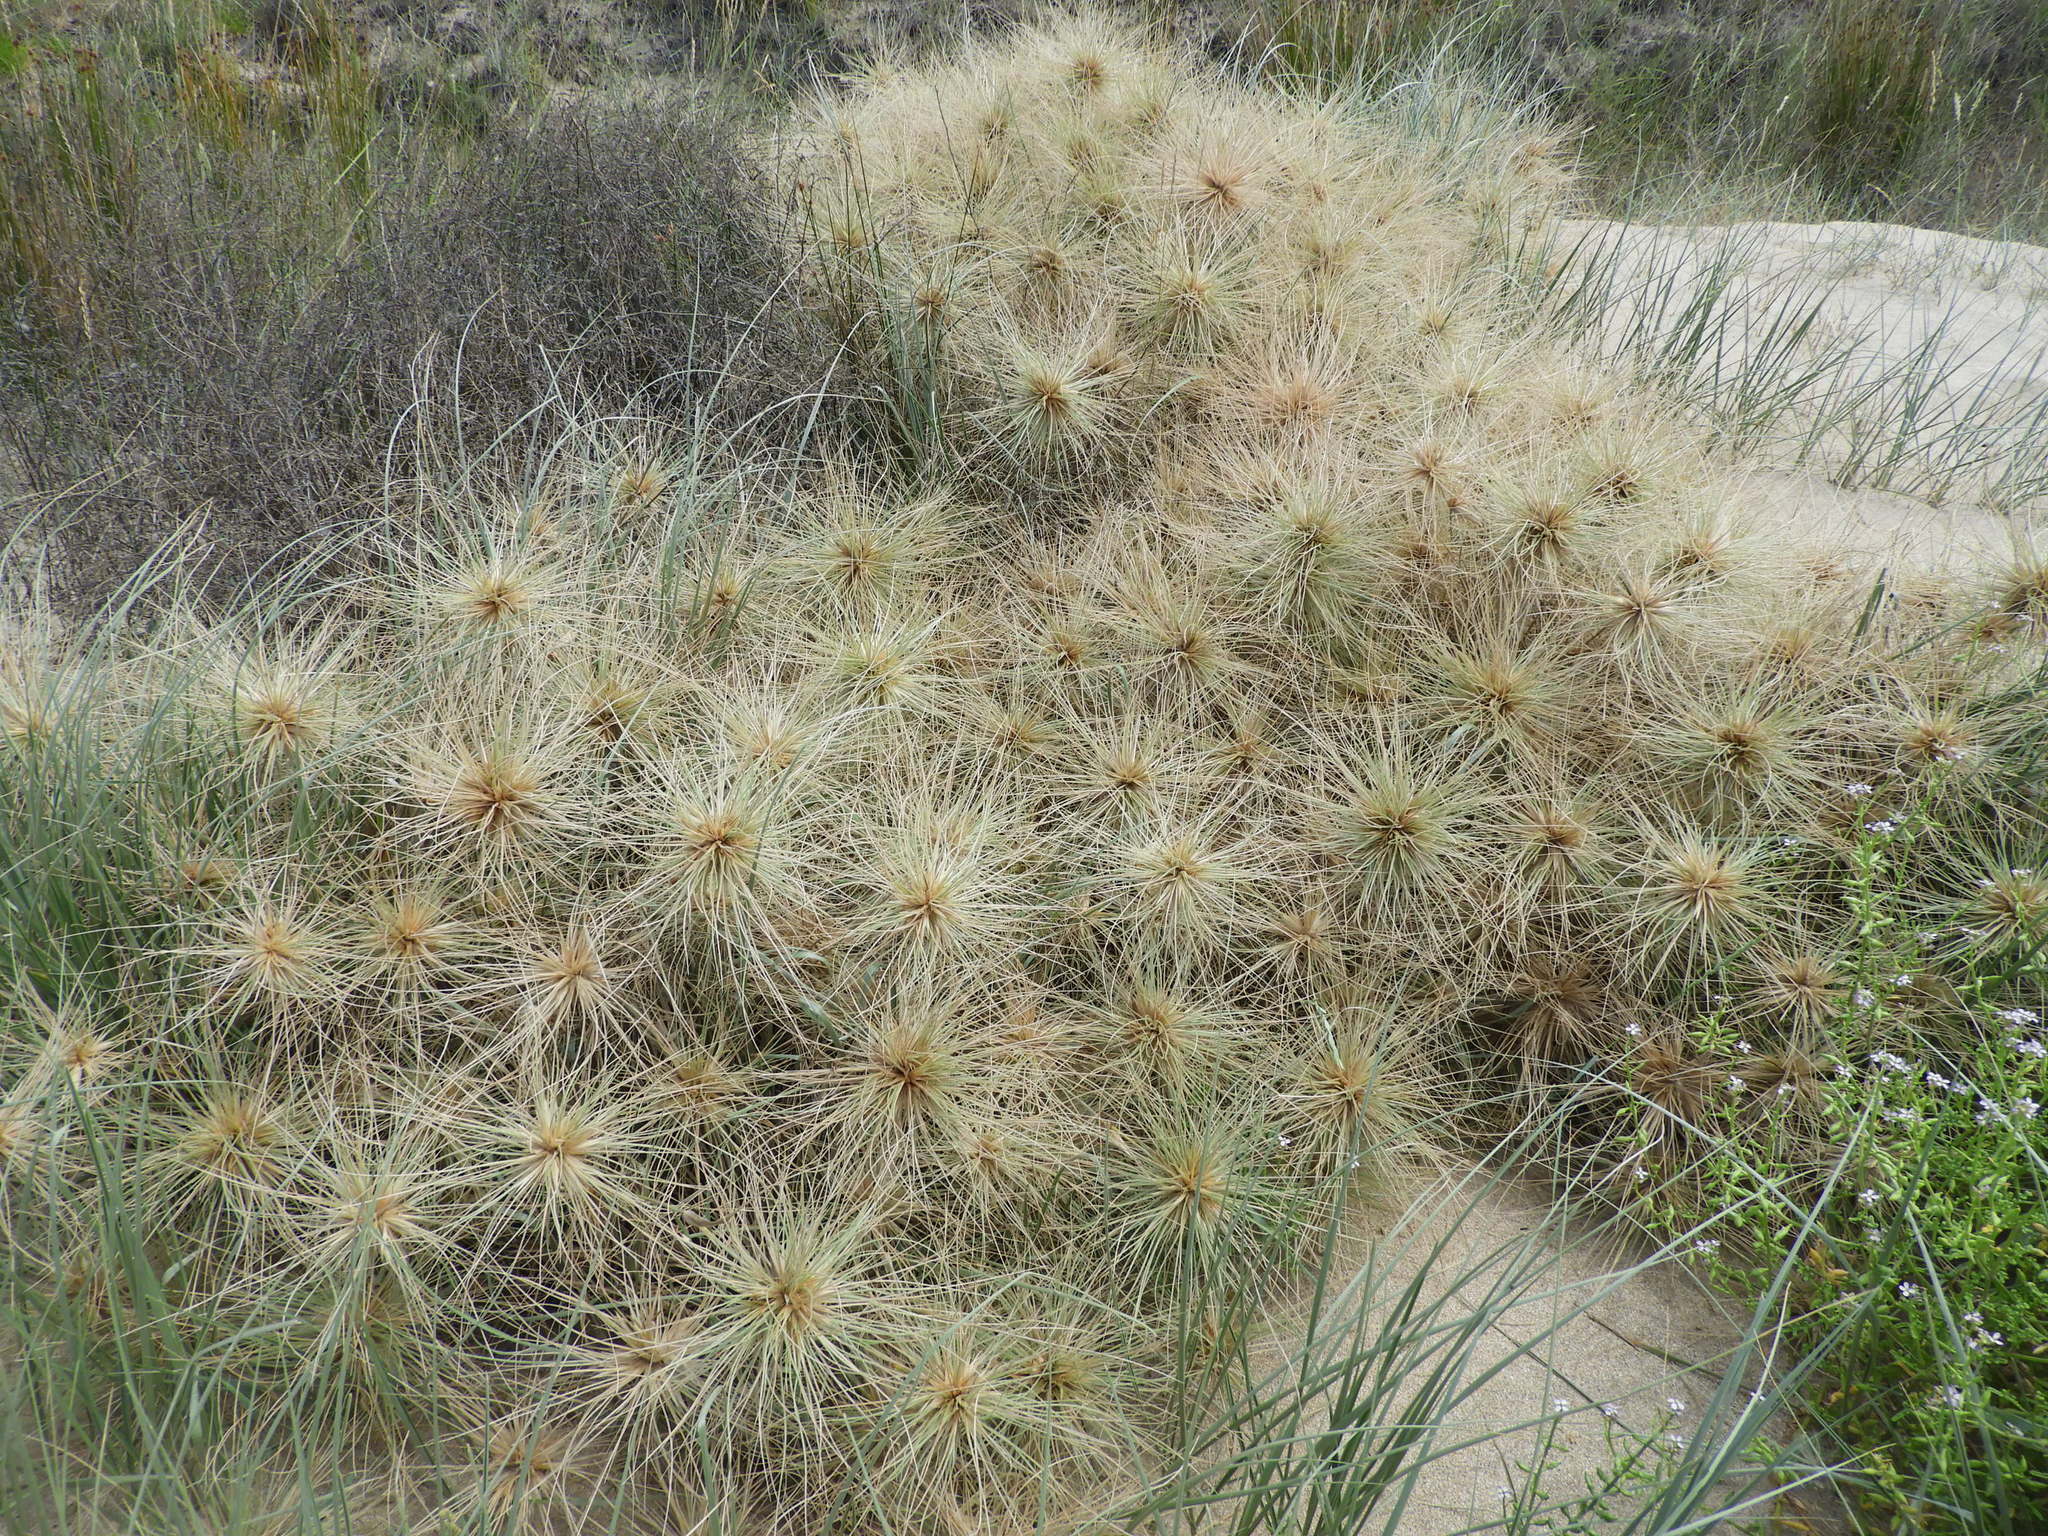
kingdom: Plantae
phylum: Tracheophyta
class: Liliopsida
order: Poales
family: Poaceae
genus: Spinifex
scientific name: Spinifex sericeus
